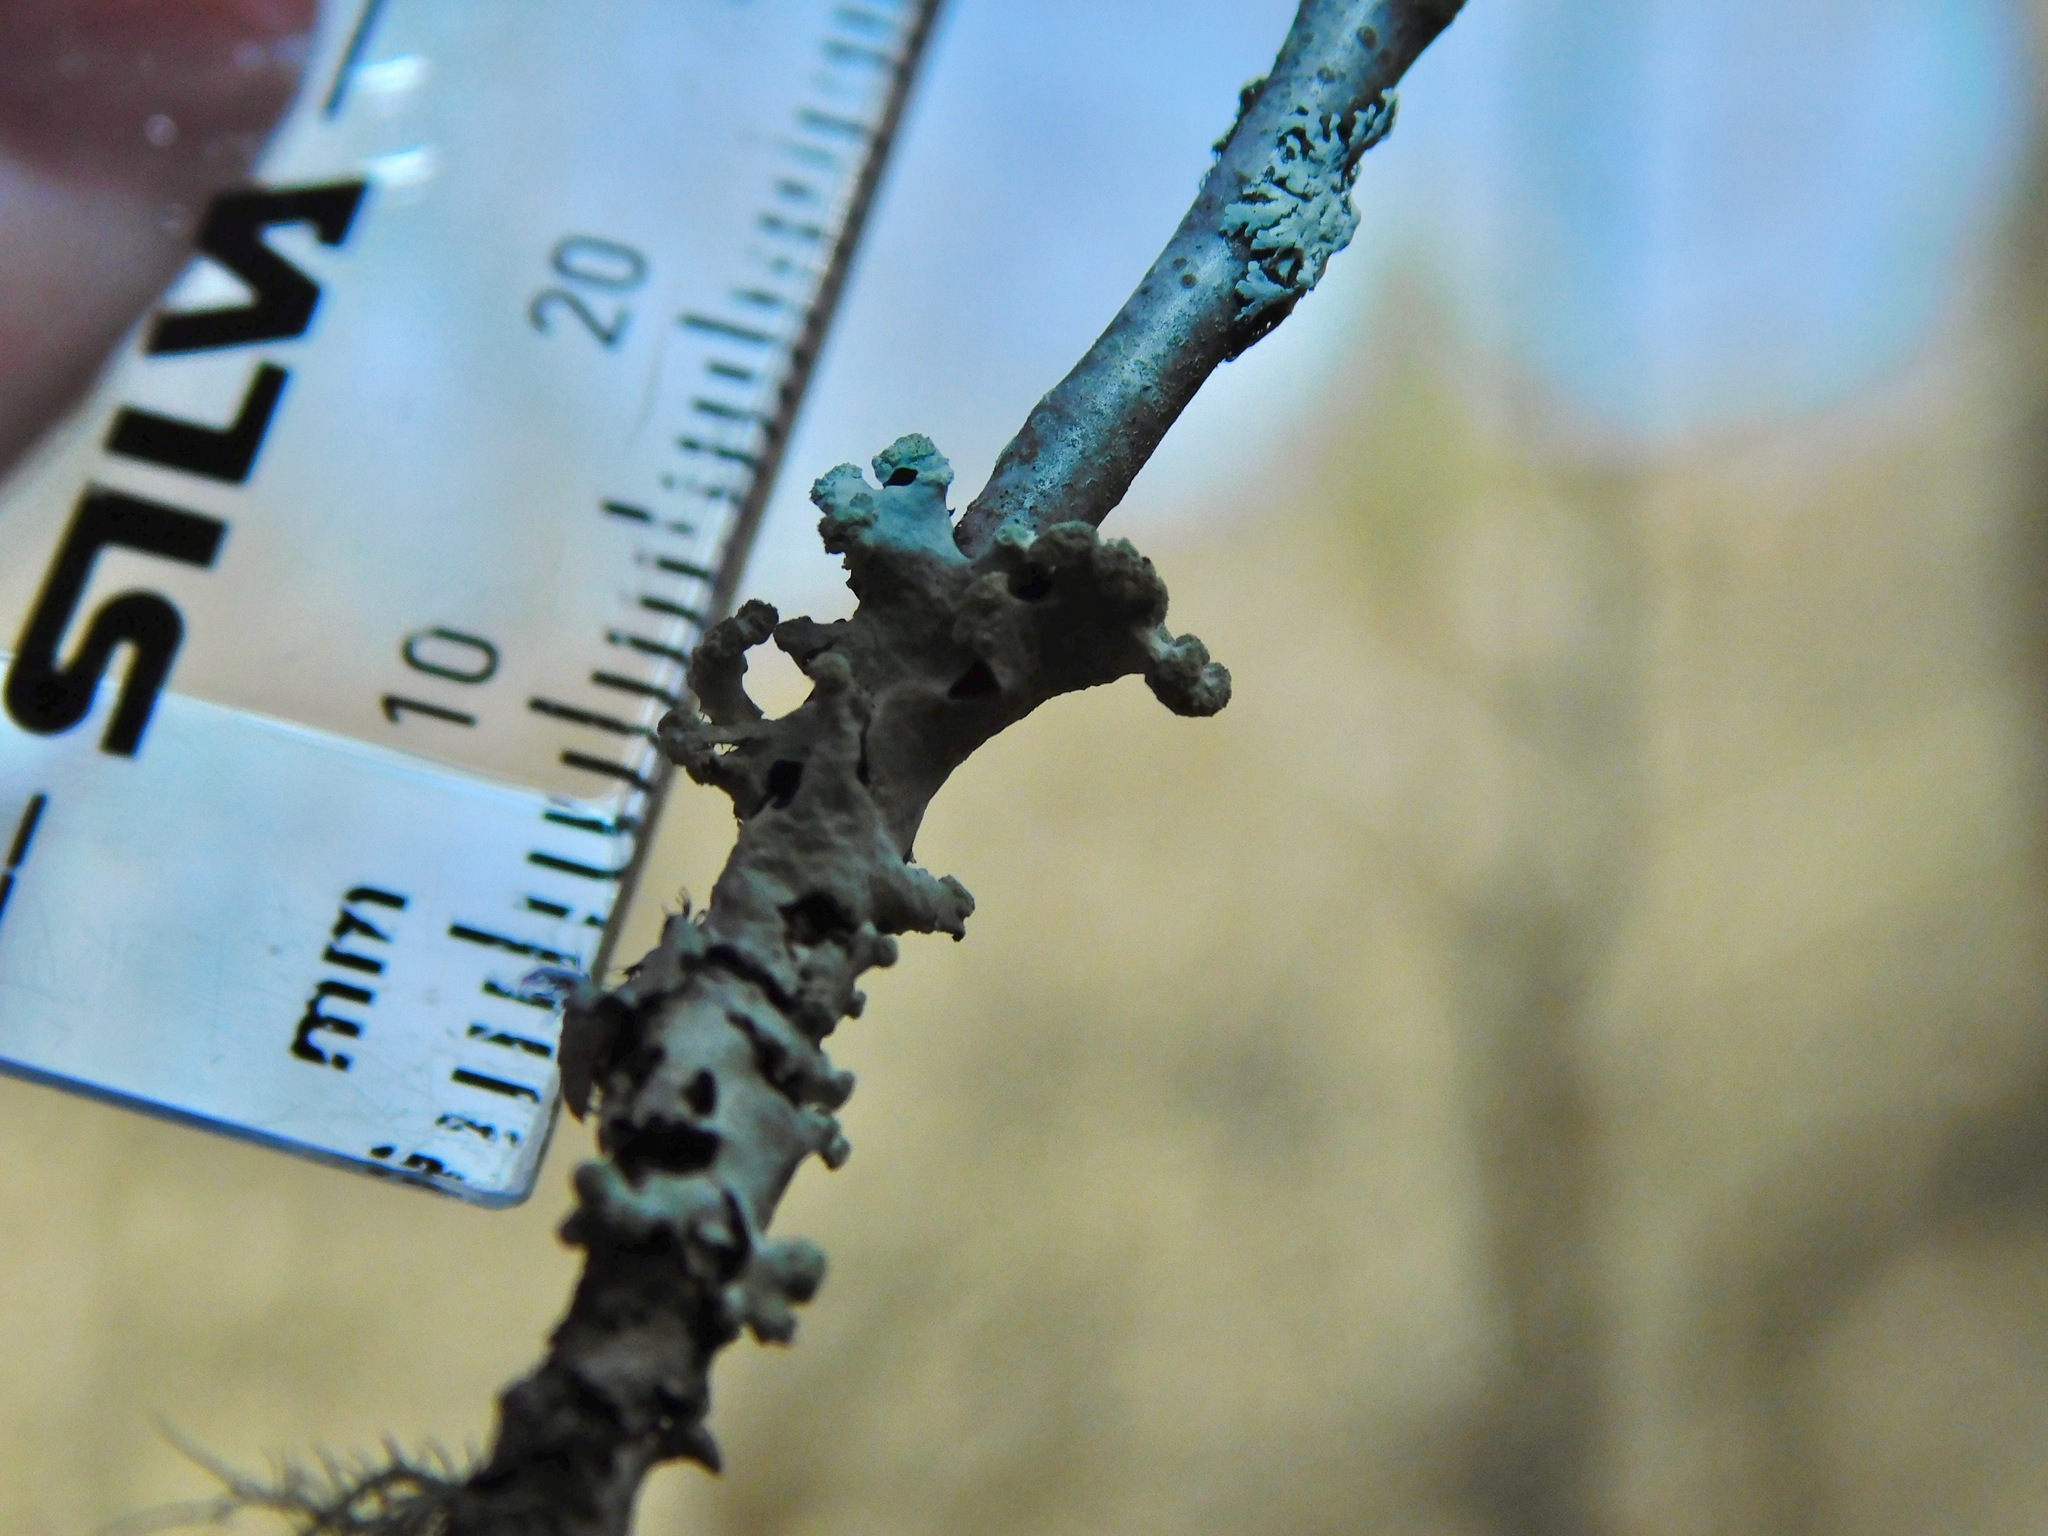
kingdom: Fungi
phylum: Ascomycota
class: Lecanoromycetes
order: Lecanorales
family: Parmeliaceae
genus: Myelochroa
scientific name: Myelochroa metarevoluta
